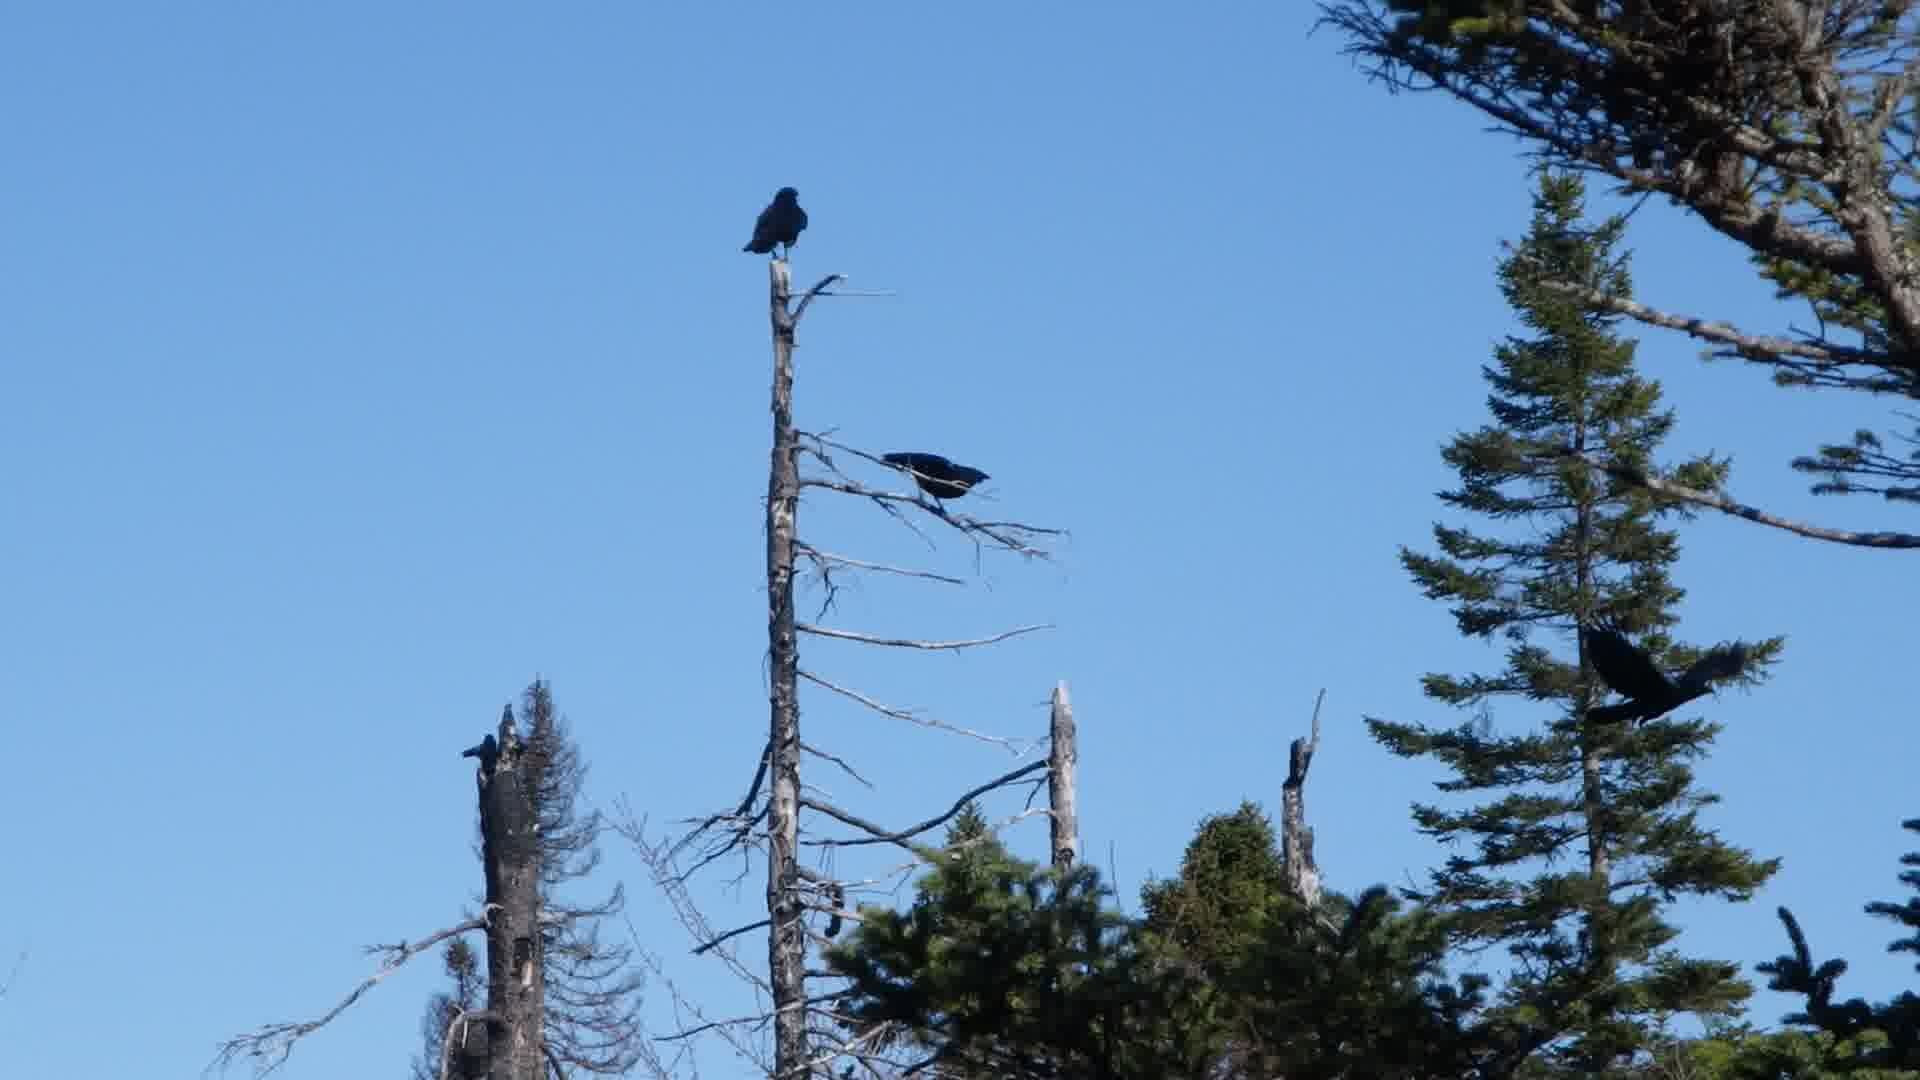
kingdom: Animalia
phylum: Chordata
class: Aves
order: Passeriformes
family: Corvidae
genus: Corvus
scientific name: Corvus brachyrhynchos
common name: American crow
